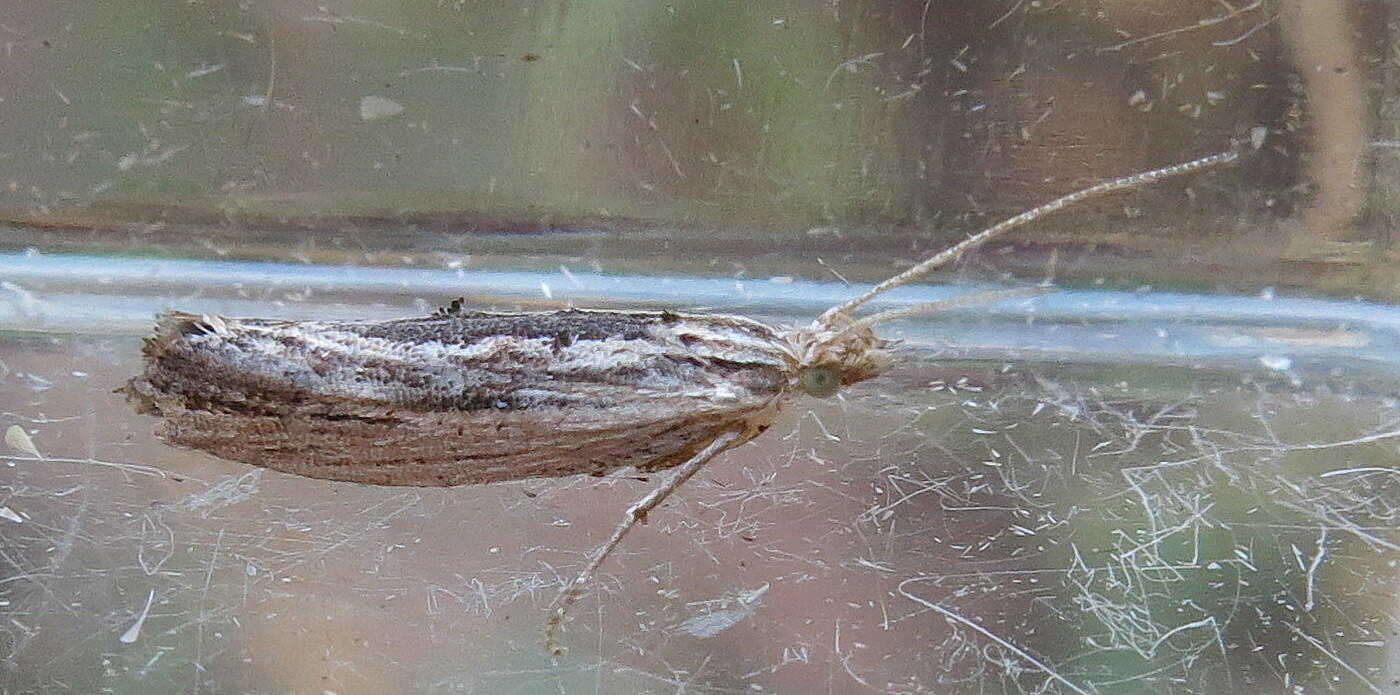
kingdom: Animalia
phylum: Arthropoda
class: Insecta
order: Lepidoptera
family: Ypsolophidae
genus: Ypsolopha
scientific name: Ypsolopha scabrella
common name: Wainscot smudge
